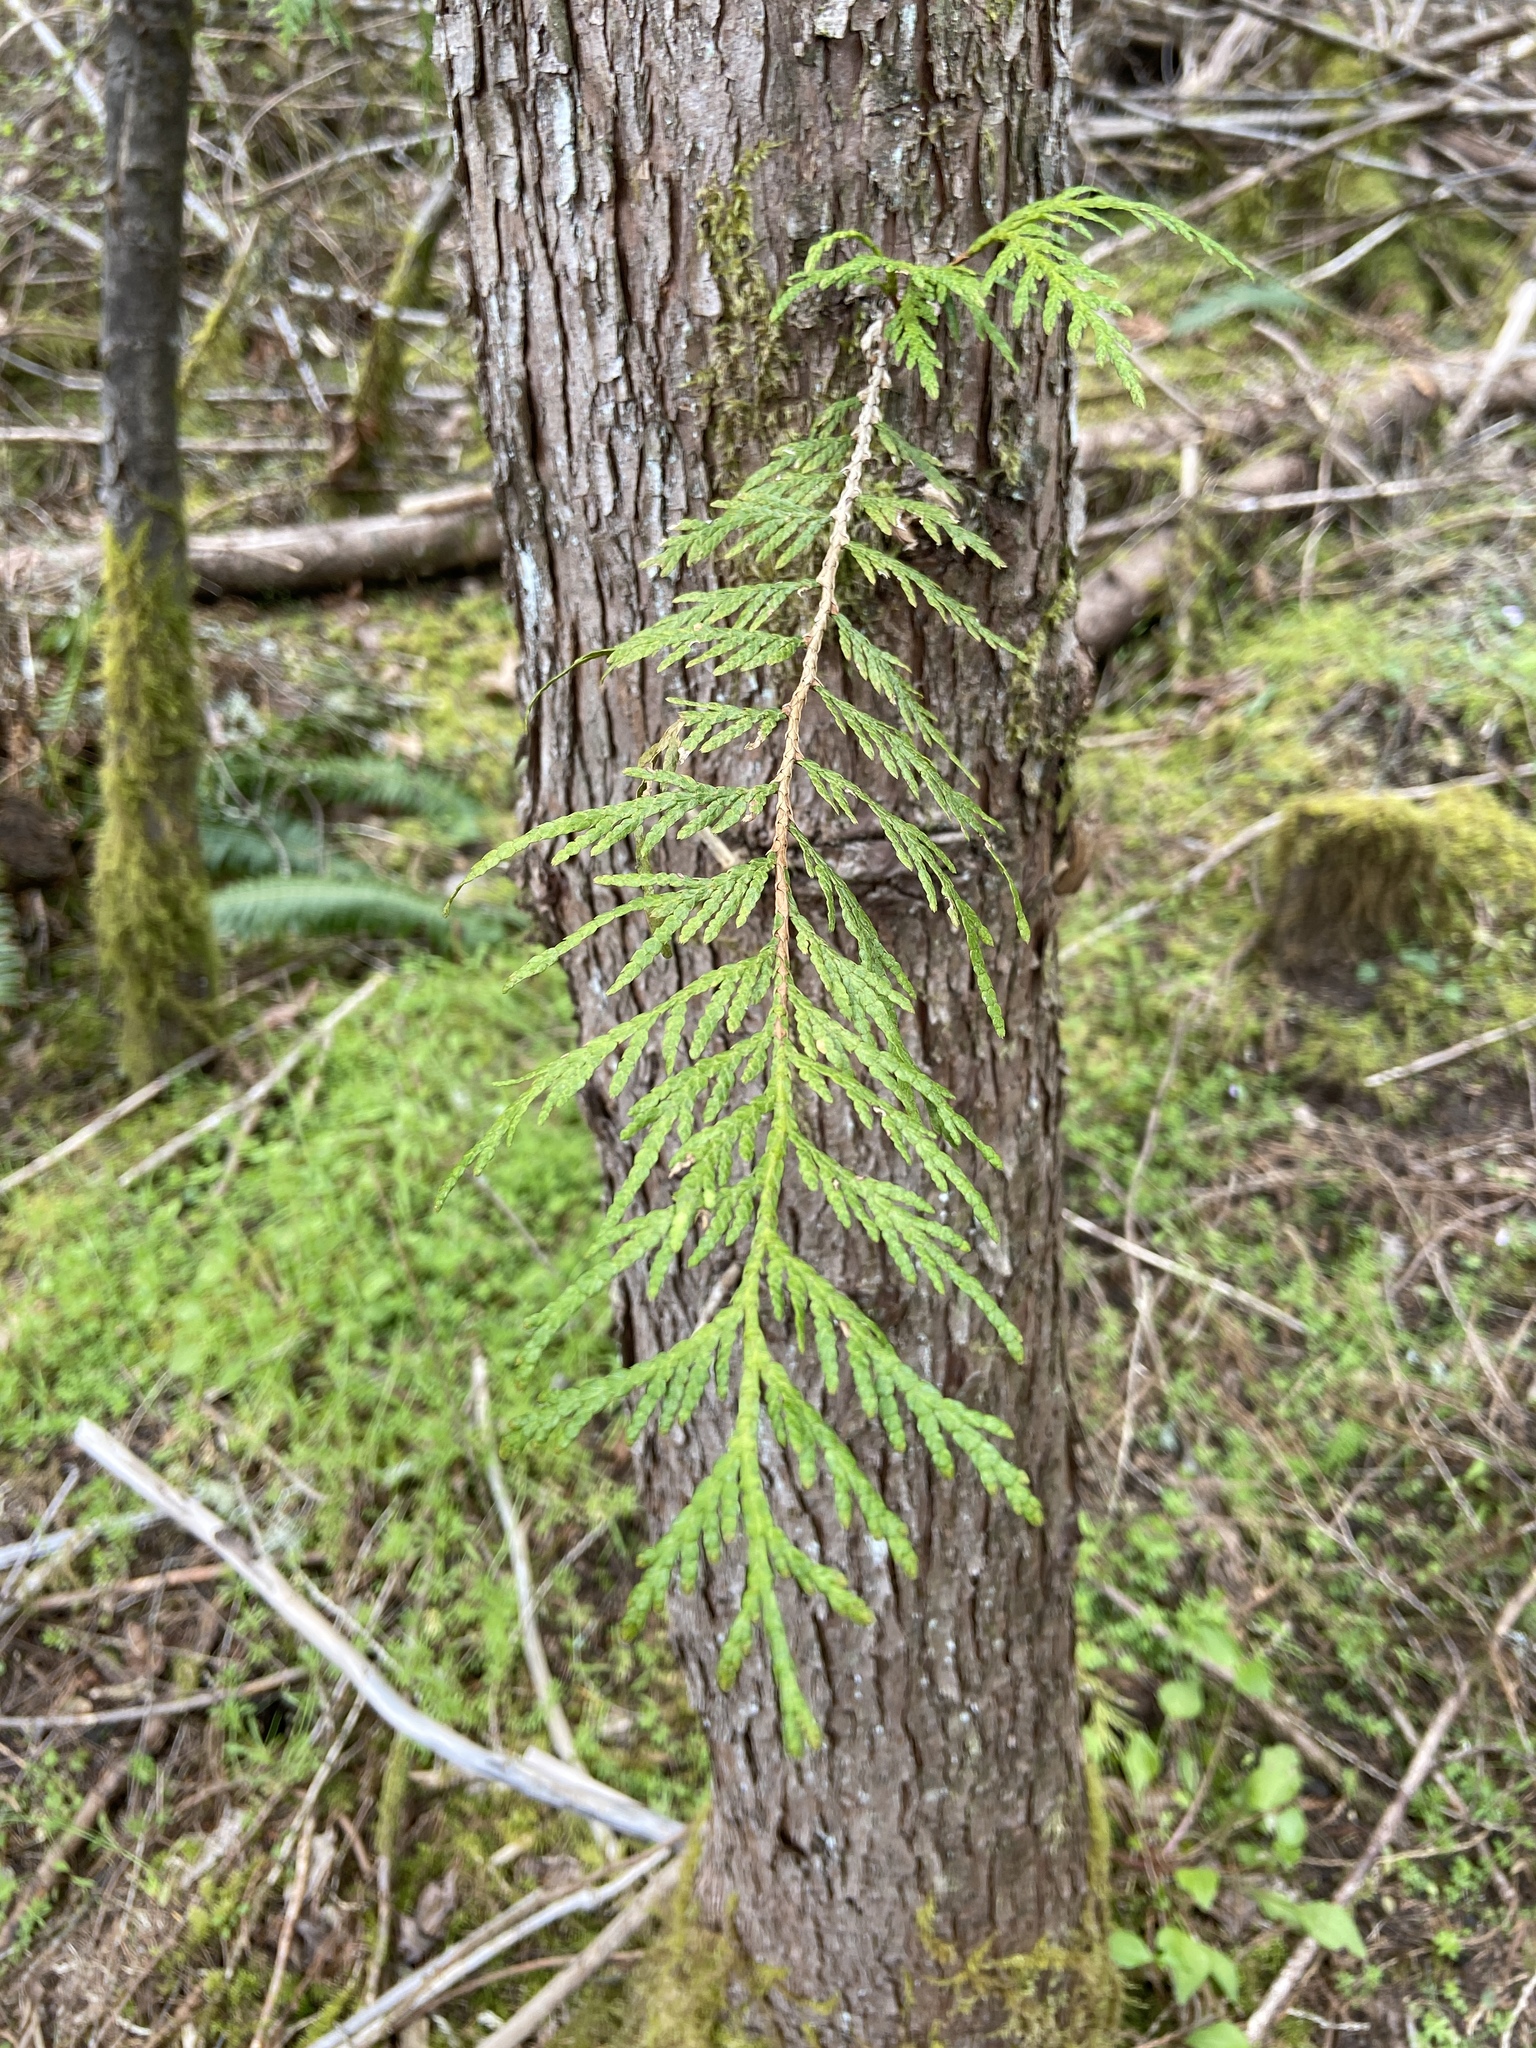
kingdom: Plantae
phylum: Tracheophyta
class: Pinopsida
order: Pinales
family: Cupressaceae
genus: Thuja
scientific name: Thuja plicata
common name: Western red-cedar
